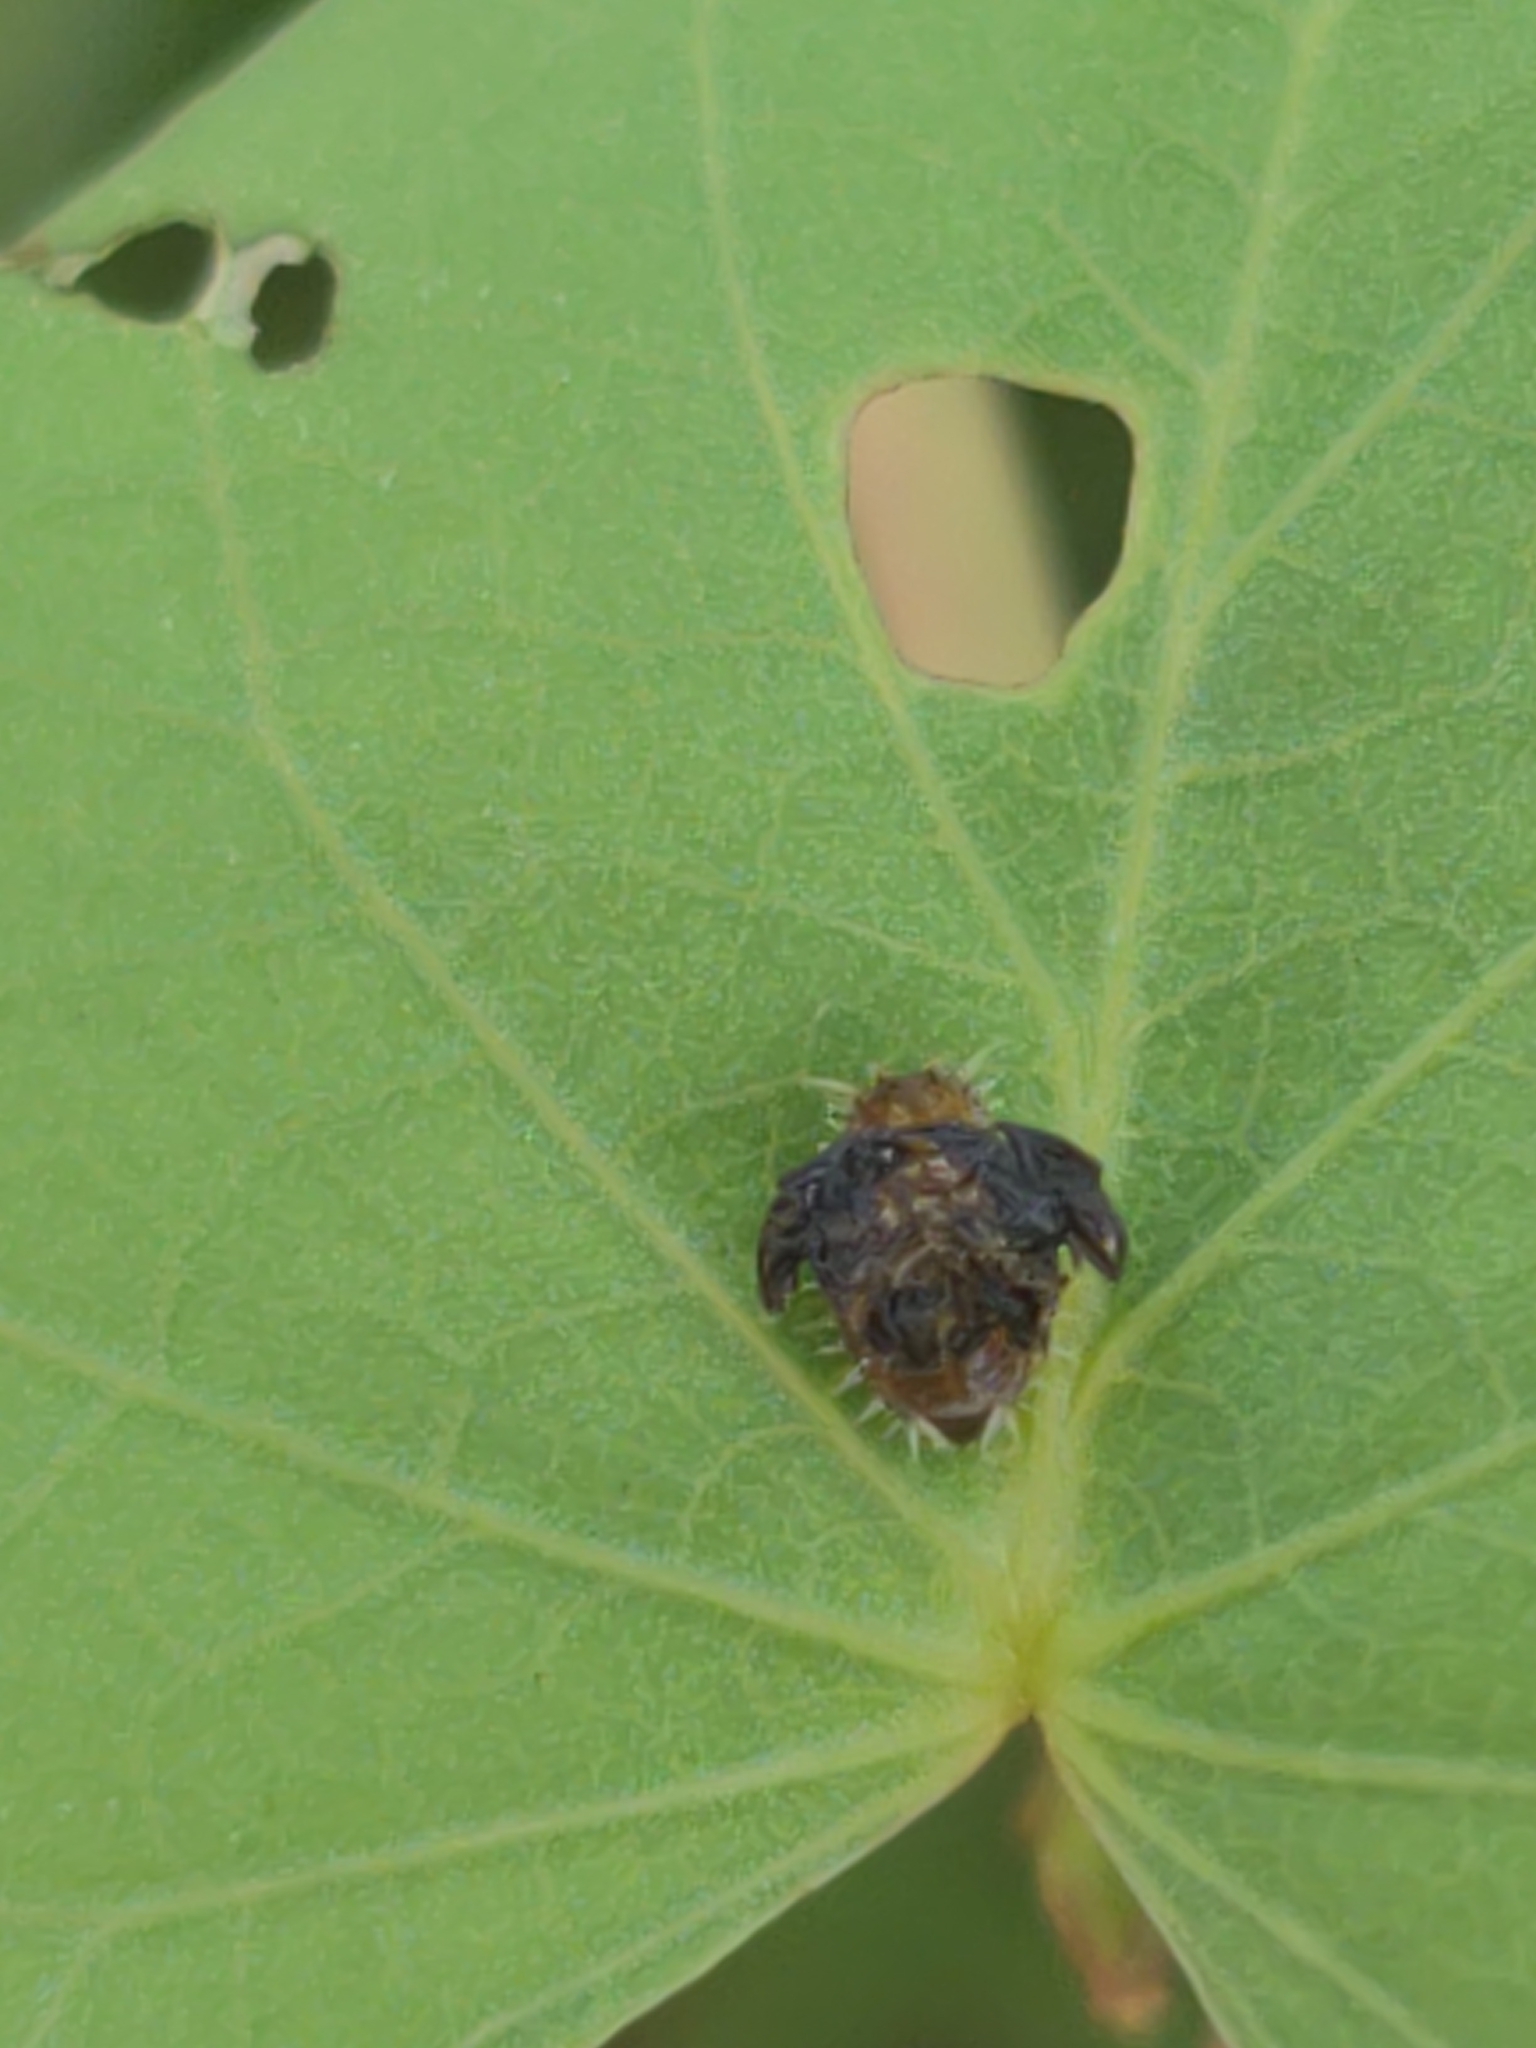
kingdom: Animalia
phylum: Arthropoda
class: Insecta
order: Coleoptera
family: Chrysomelidae
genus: Charidotella
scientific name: Charidotella sexpunctata
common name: Golden tortoise beetle
